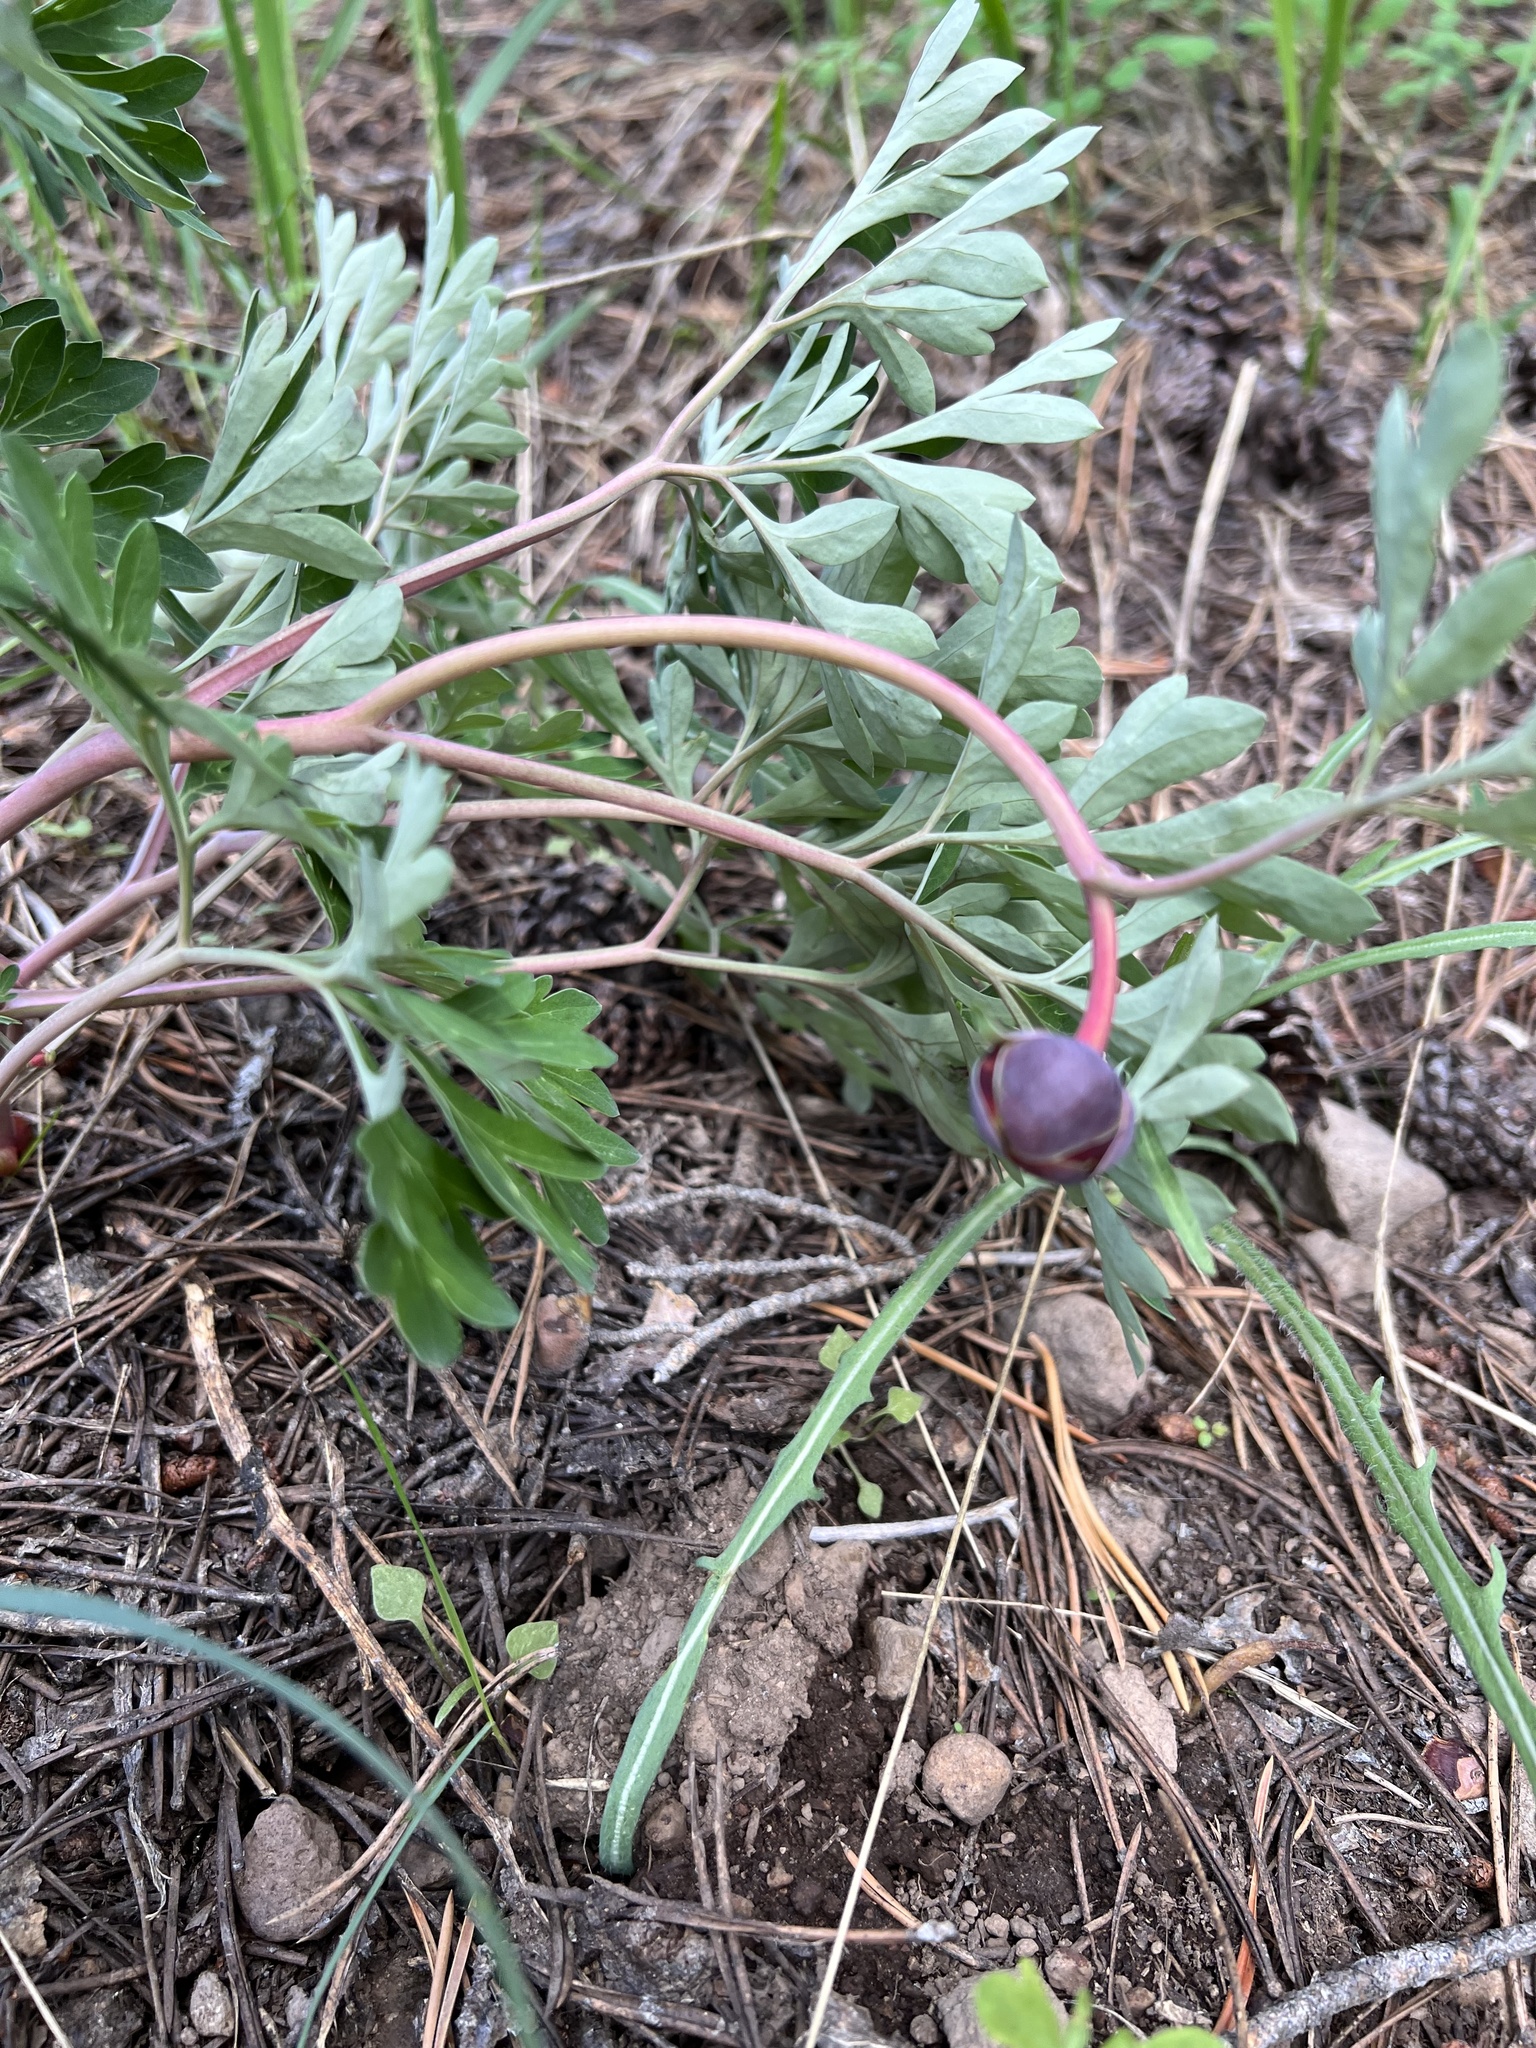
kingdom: Plantae
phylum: Tracheophyta
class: Magnoliopsida
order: Saxifragales
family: Paeoniaceae
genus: Paeonia
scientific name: Paeonia brownii
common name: Brown's peony
